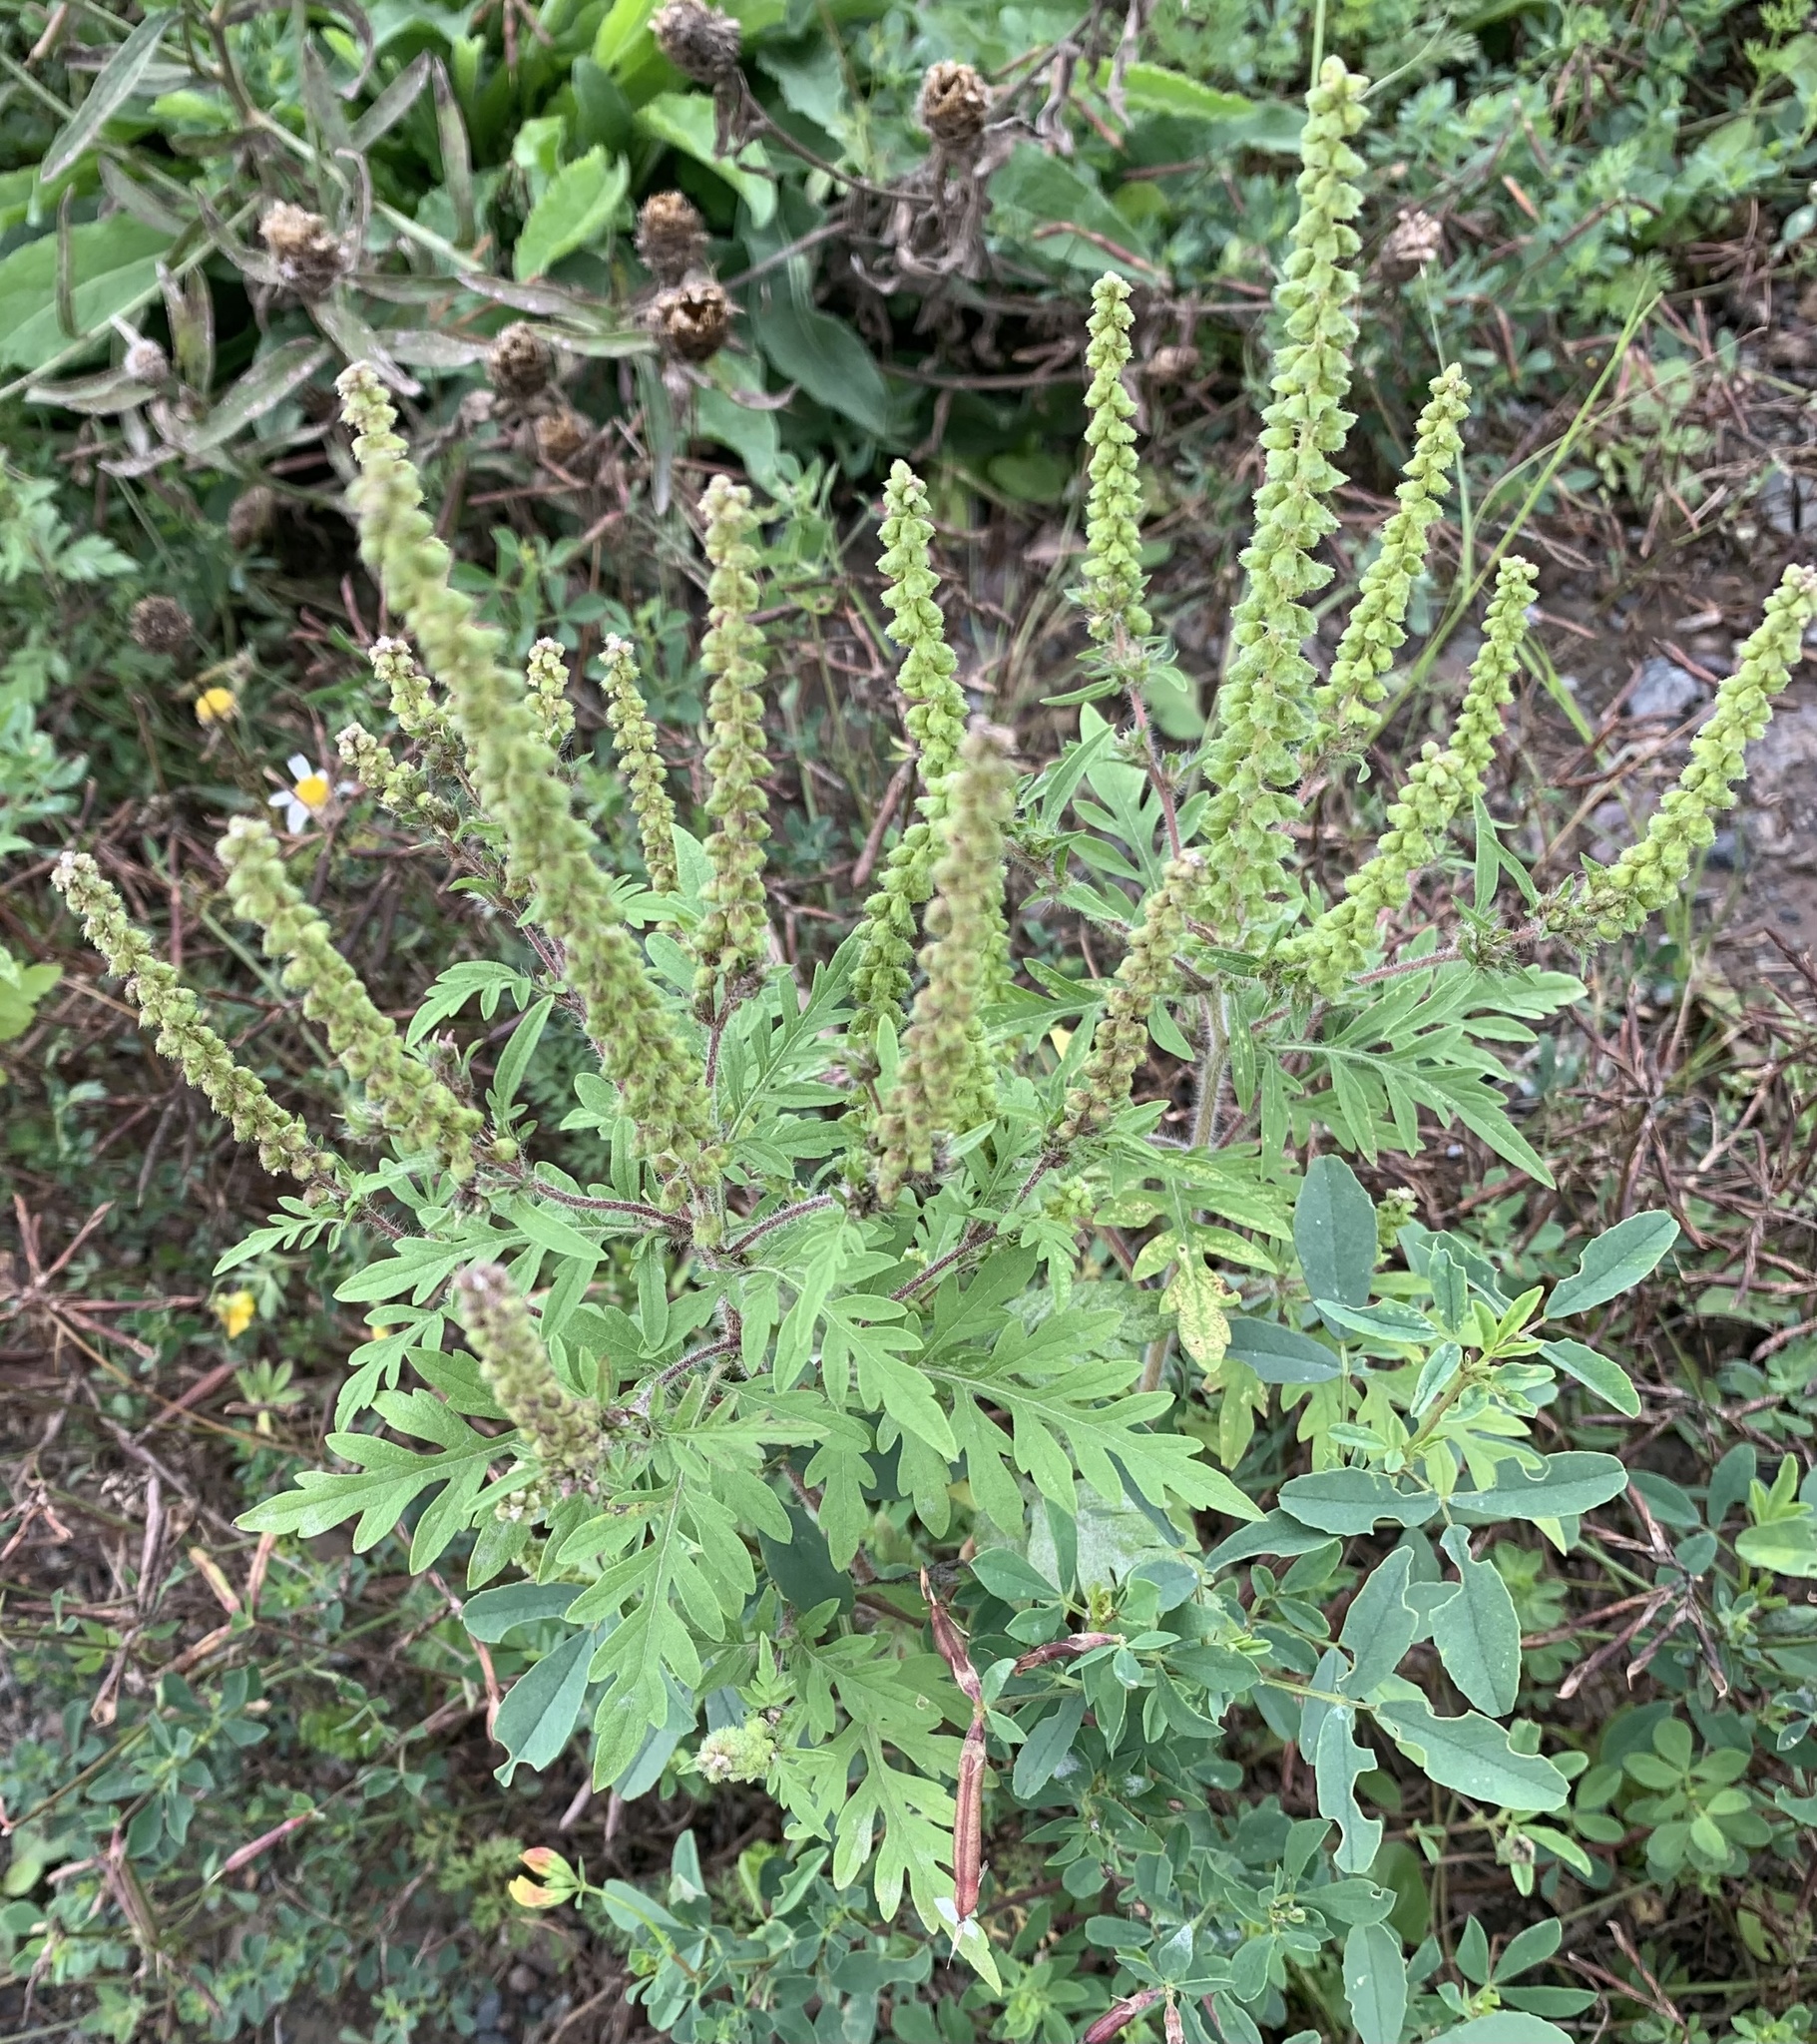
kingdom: Plantae
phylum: Tracheophyta
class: Magnoliopsida
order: Asterales
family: Asteraceae
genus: Ambrosia
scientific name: Ambrosia artemisiifolia
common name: Annual ragweed
